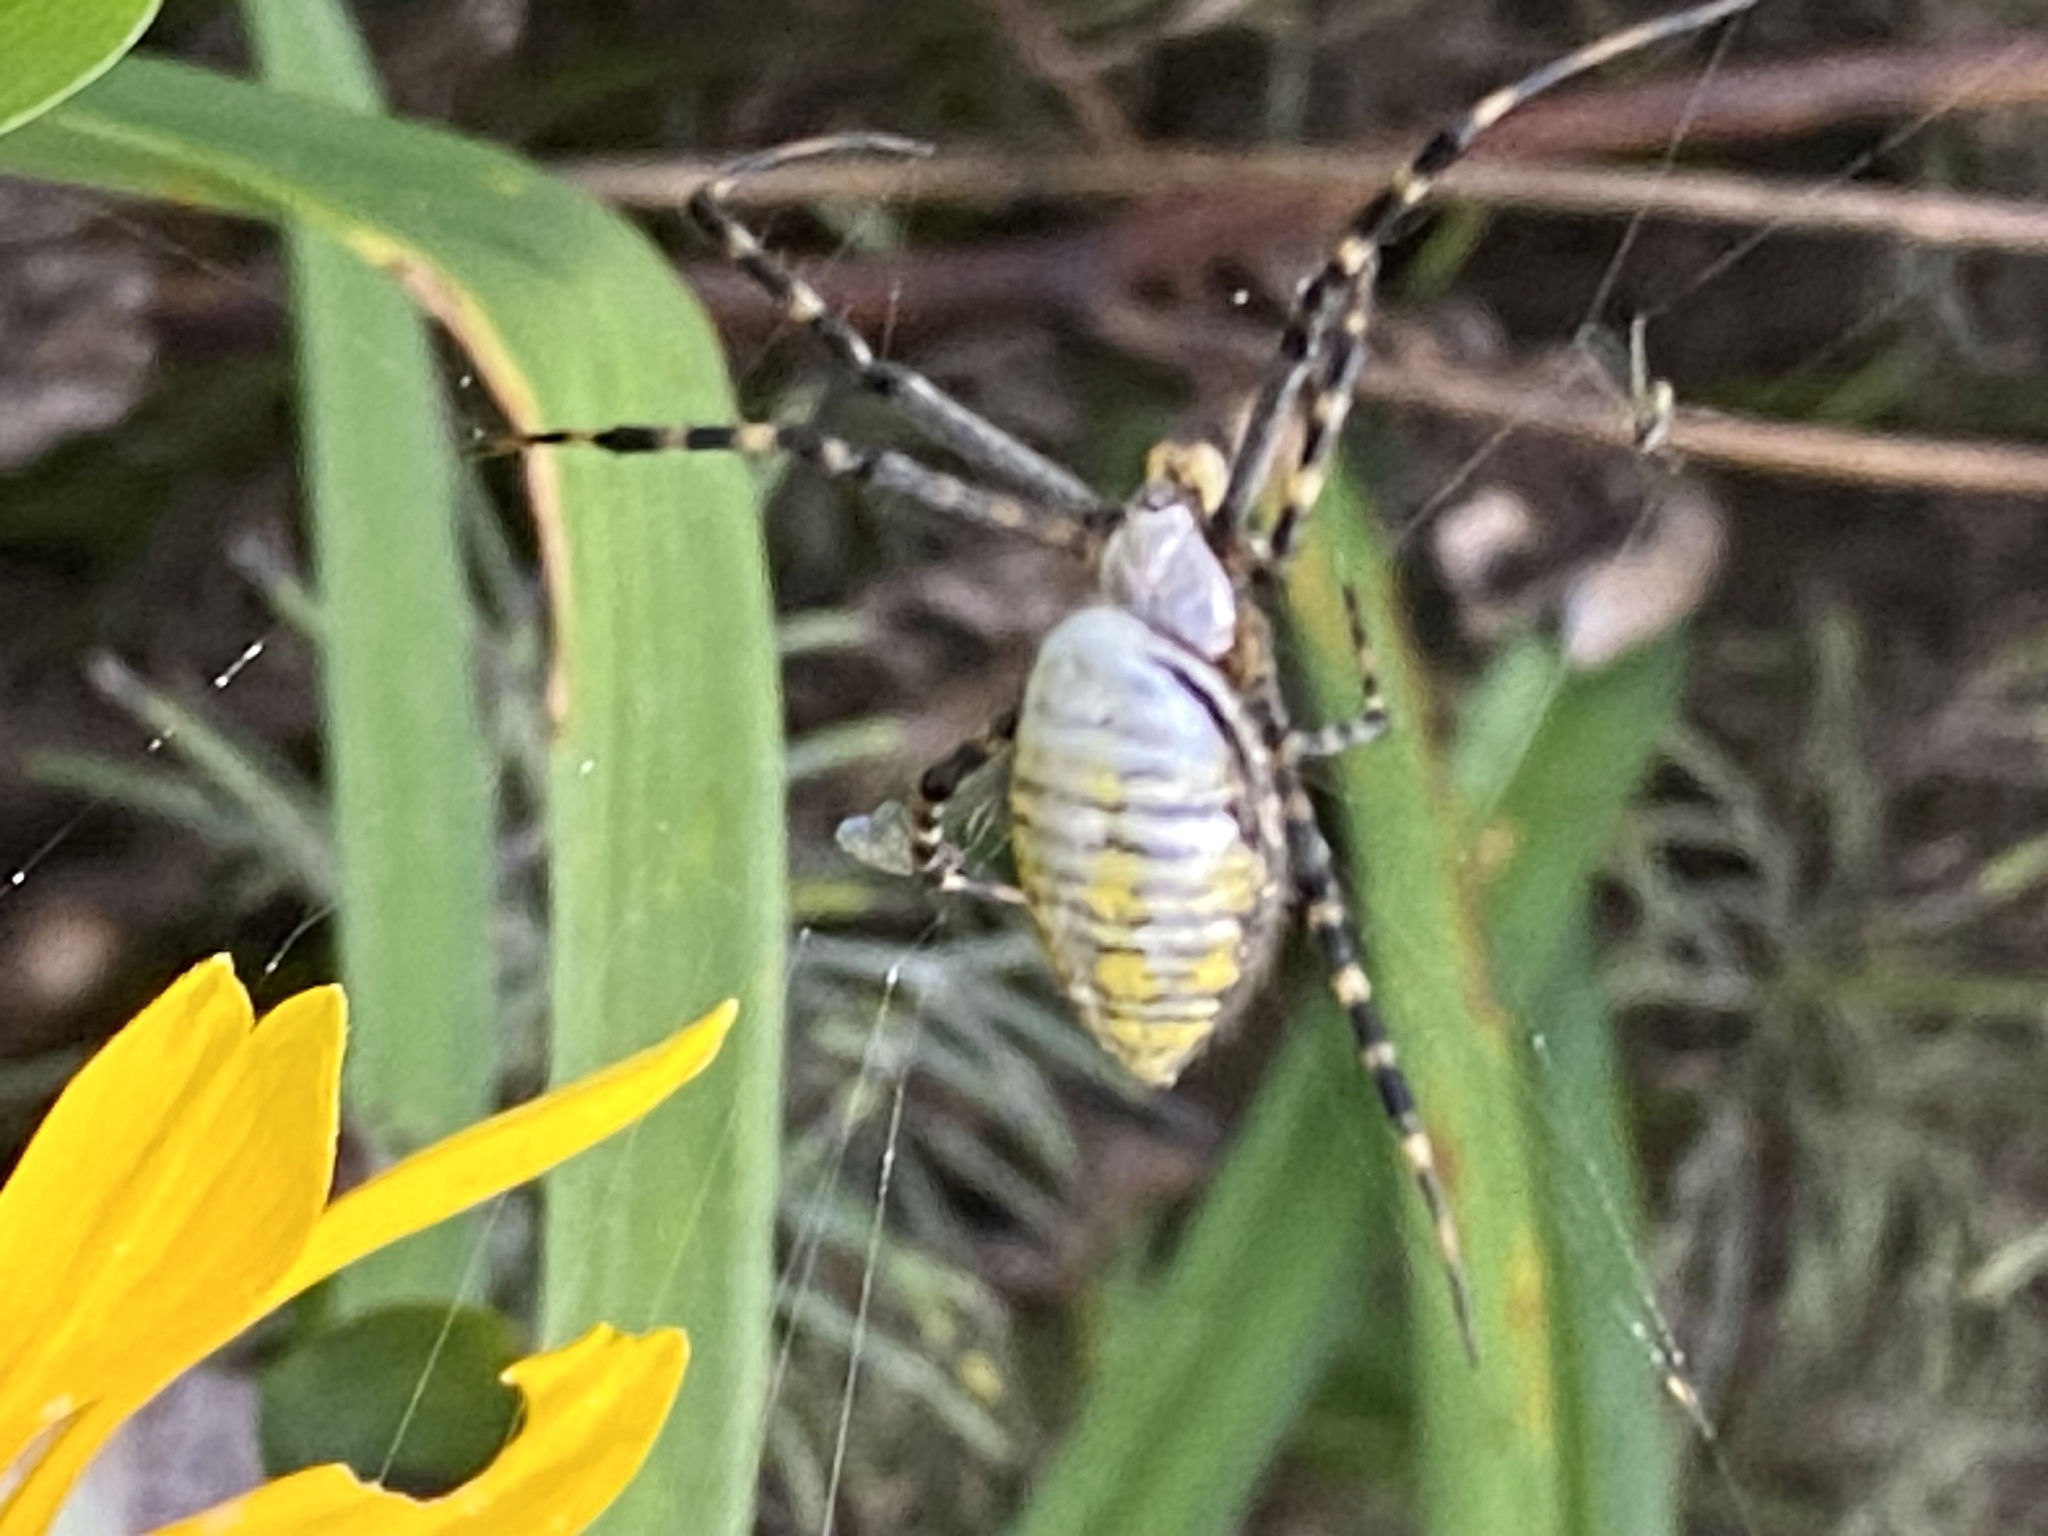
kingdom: Animalia
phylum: Arthropoda
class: Arachnida
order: Araneae
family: Araneidae
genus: Argiope
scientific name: Argiope trifasciata
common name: Banded garden spider
